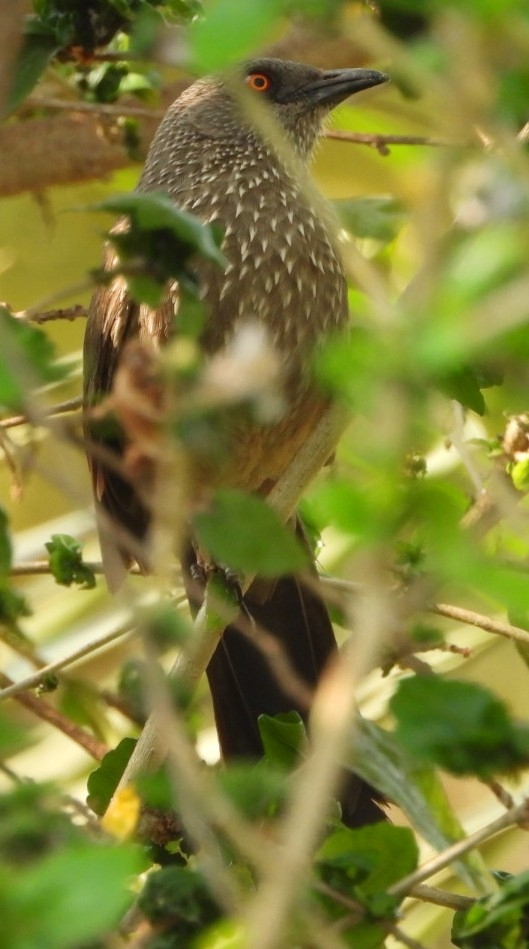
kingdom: Animalia
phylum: Chordata
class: Aves
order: Passeriformes
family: Leiothrichidae
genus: Turdoides
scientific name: Turdoides jardineii
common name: Arrow-marked babbler
